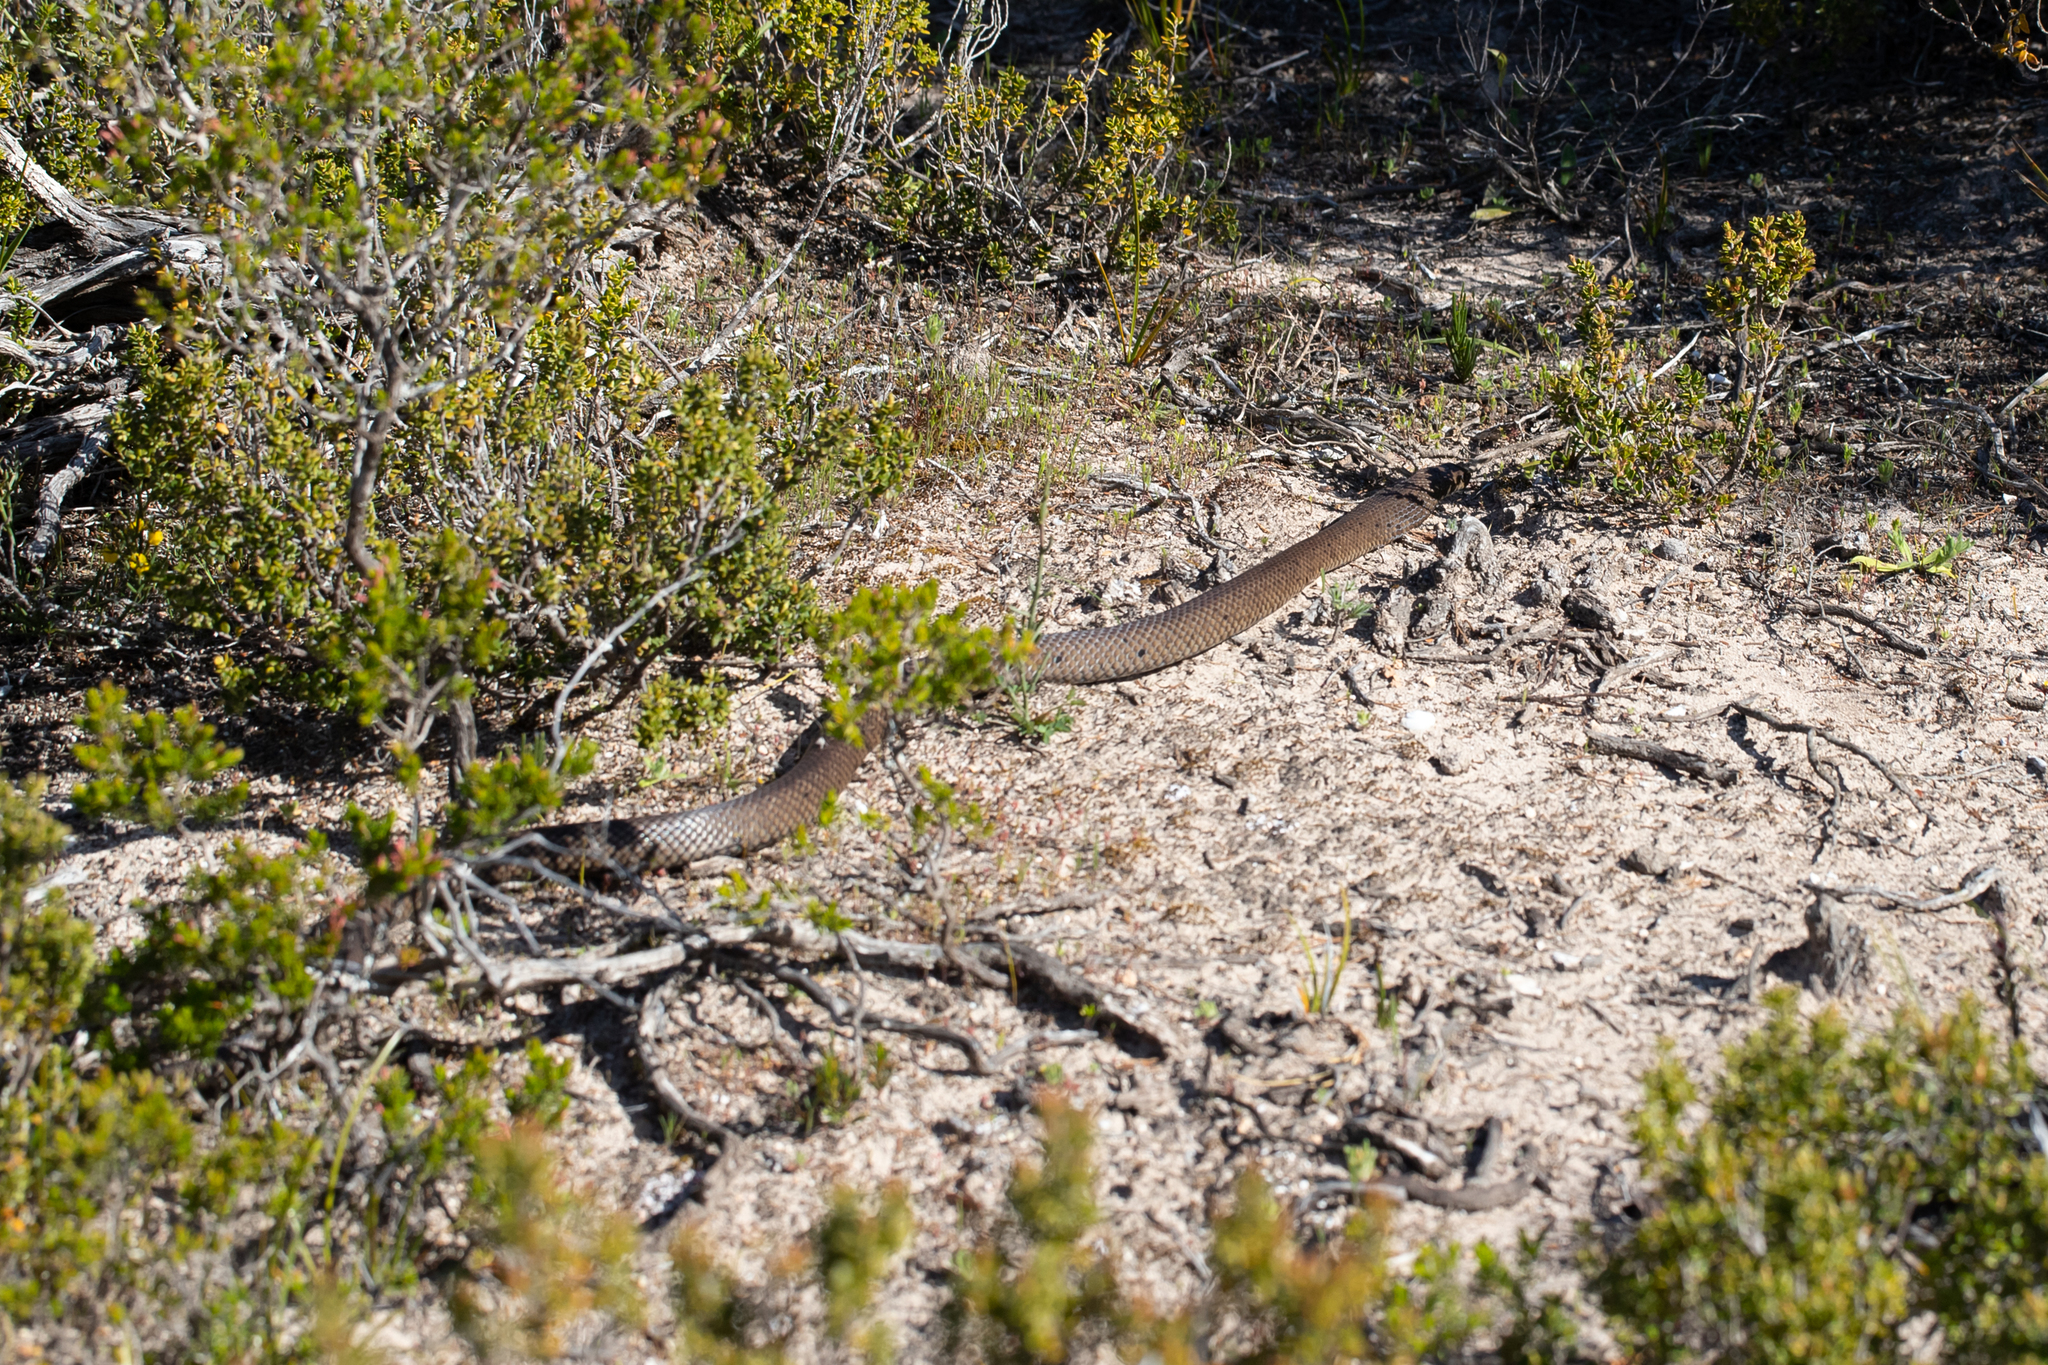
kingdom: Animalia
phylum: Chordata
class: Squamata
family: Elapidae
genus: Pseudonaja
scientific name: Pseudonaja inframacula
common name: Peninsula brown snake
